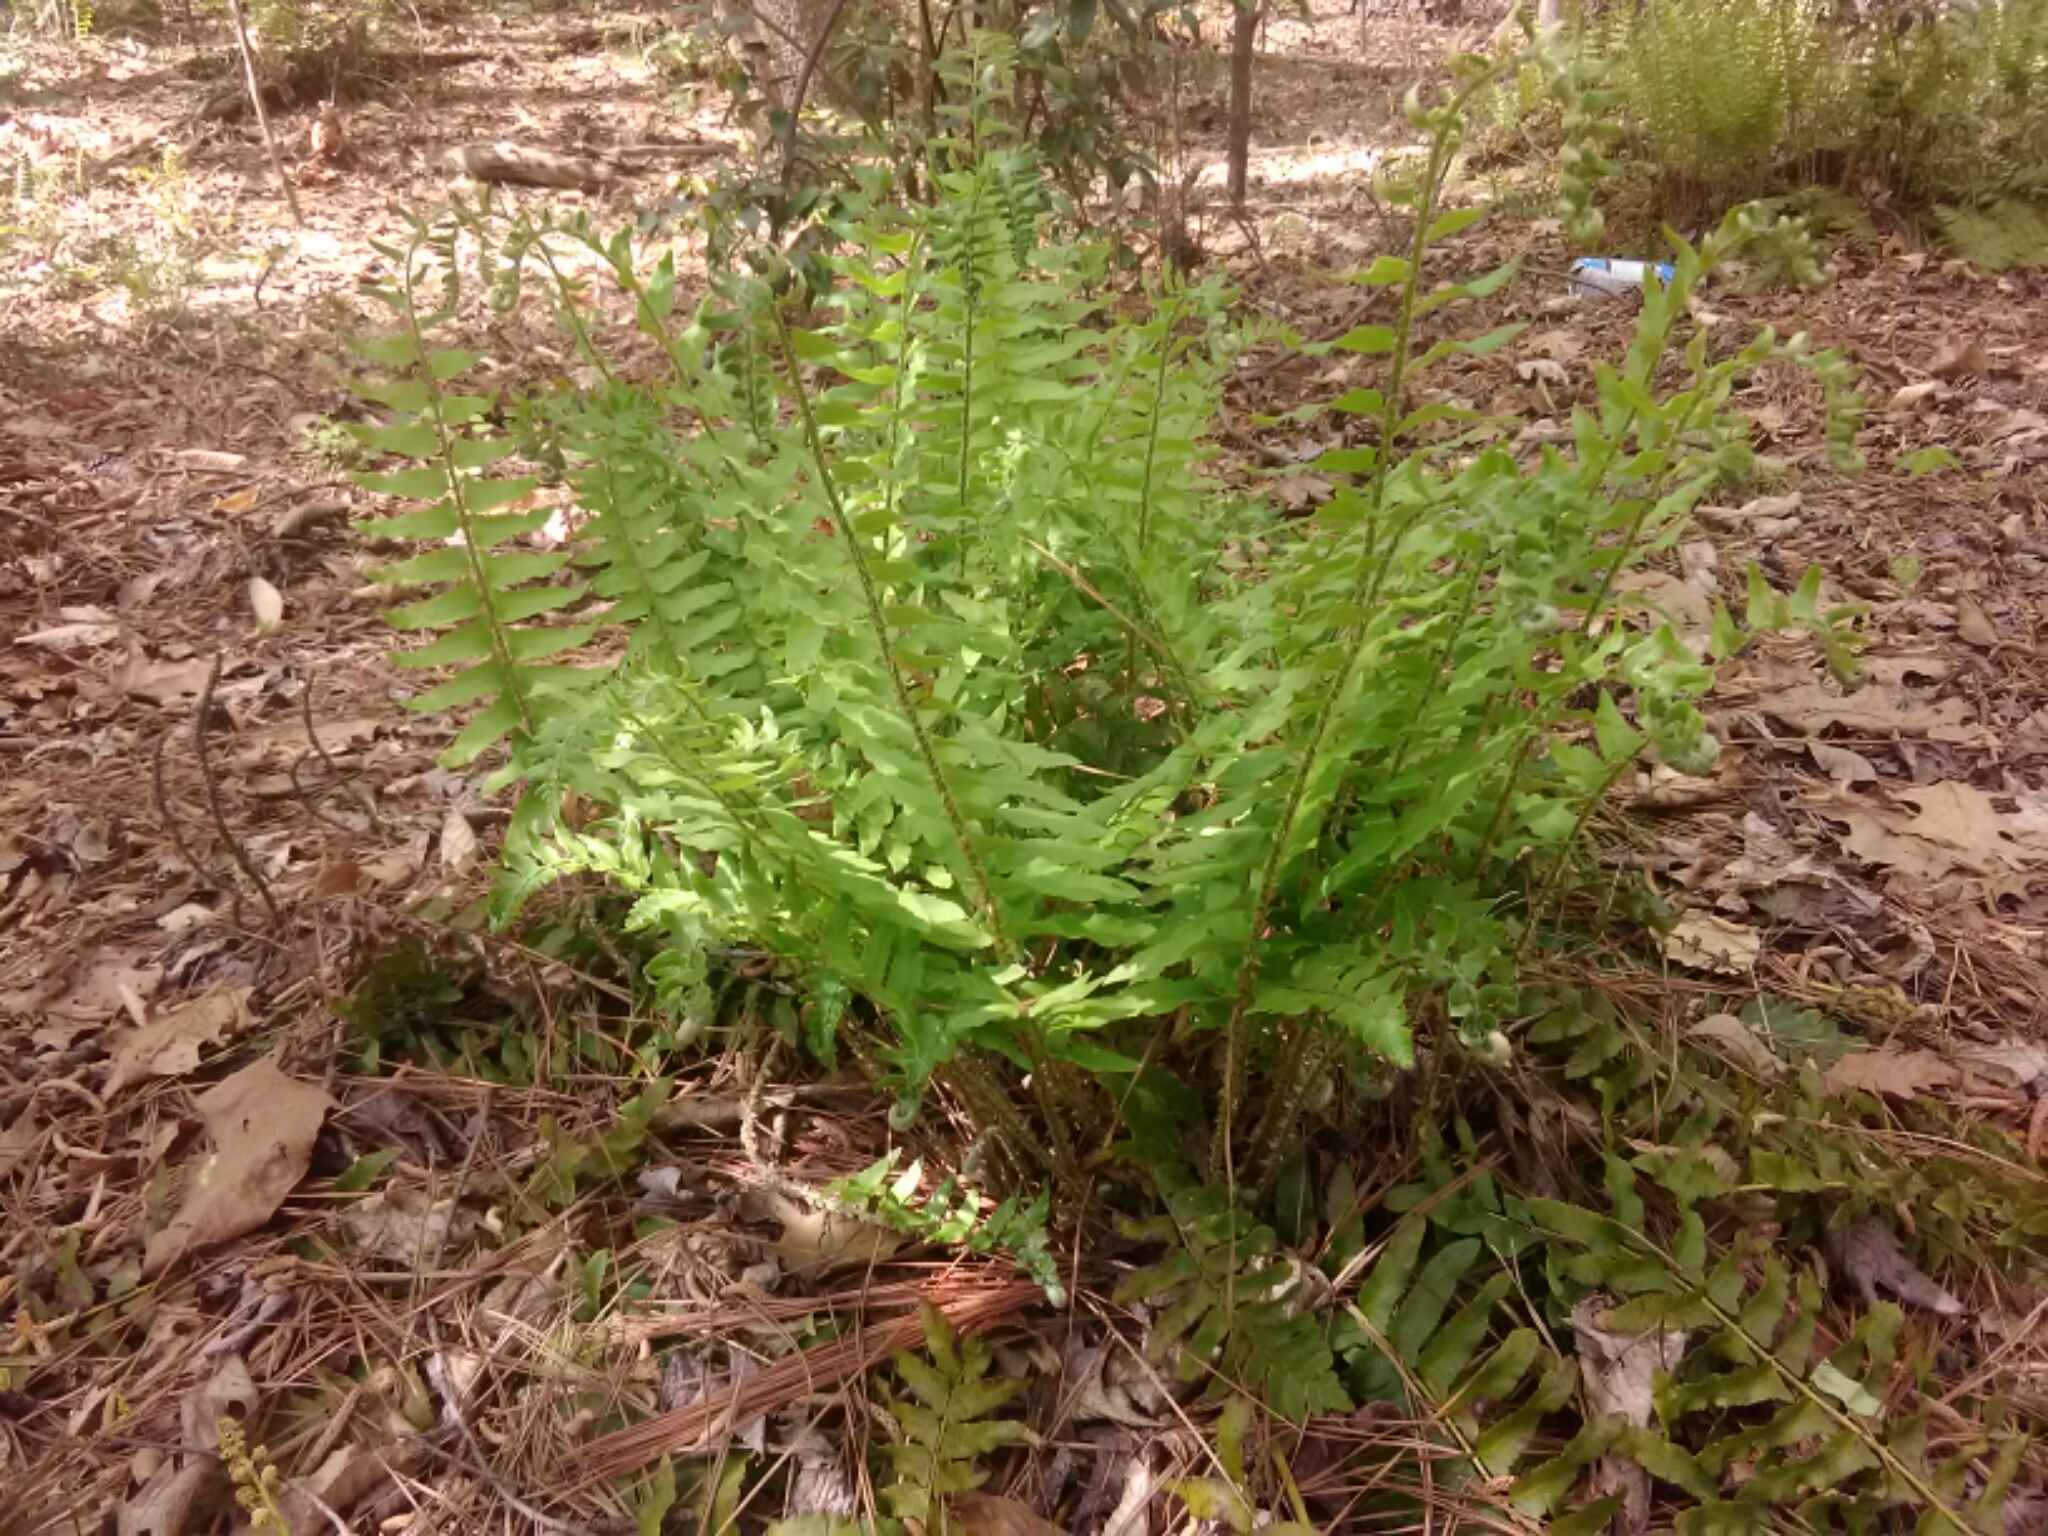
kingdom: Plantae
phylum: Tracheophyta
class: Polypodiopsida
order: Polypodiales
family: Dryopteridaceae
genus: Polystichum
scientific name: Polystichum acrostichoides
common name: Christmas fern
